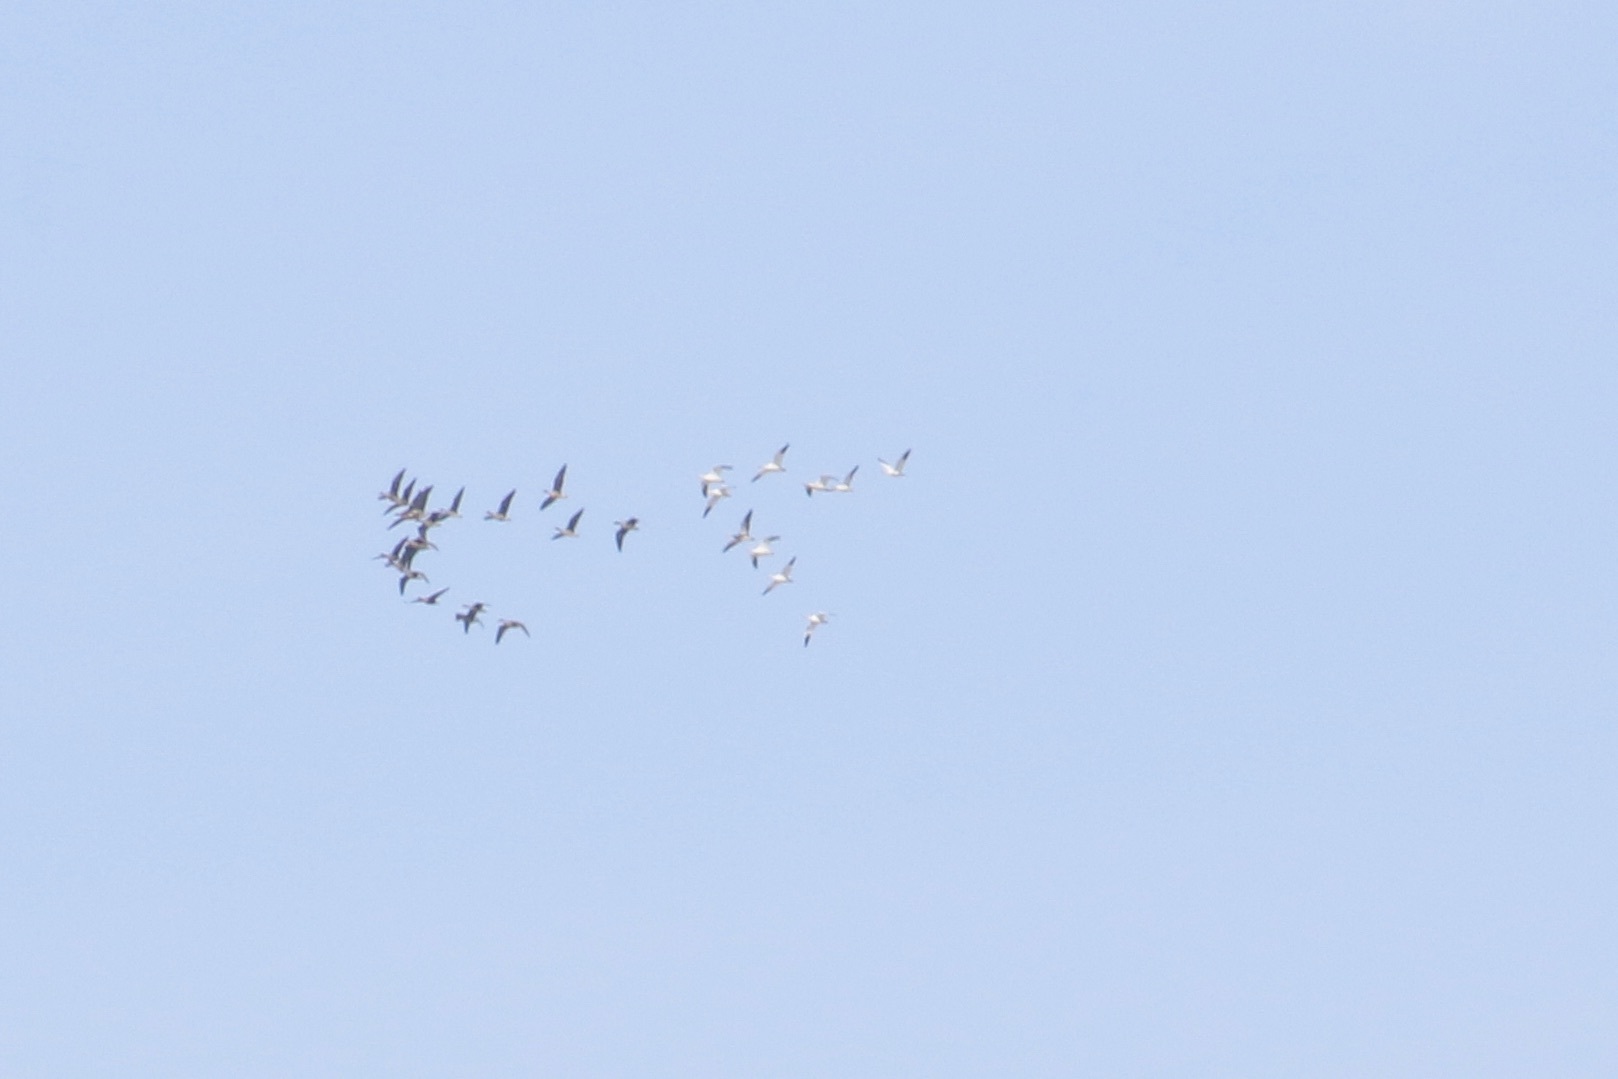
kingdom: Animalia
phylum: Chordata
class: Aves
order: Anseriformes
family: Anatidae
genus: Anser
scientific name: Anser caerulescens
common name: Snow goose
